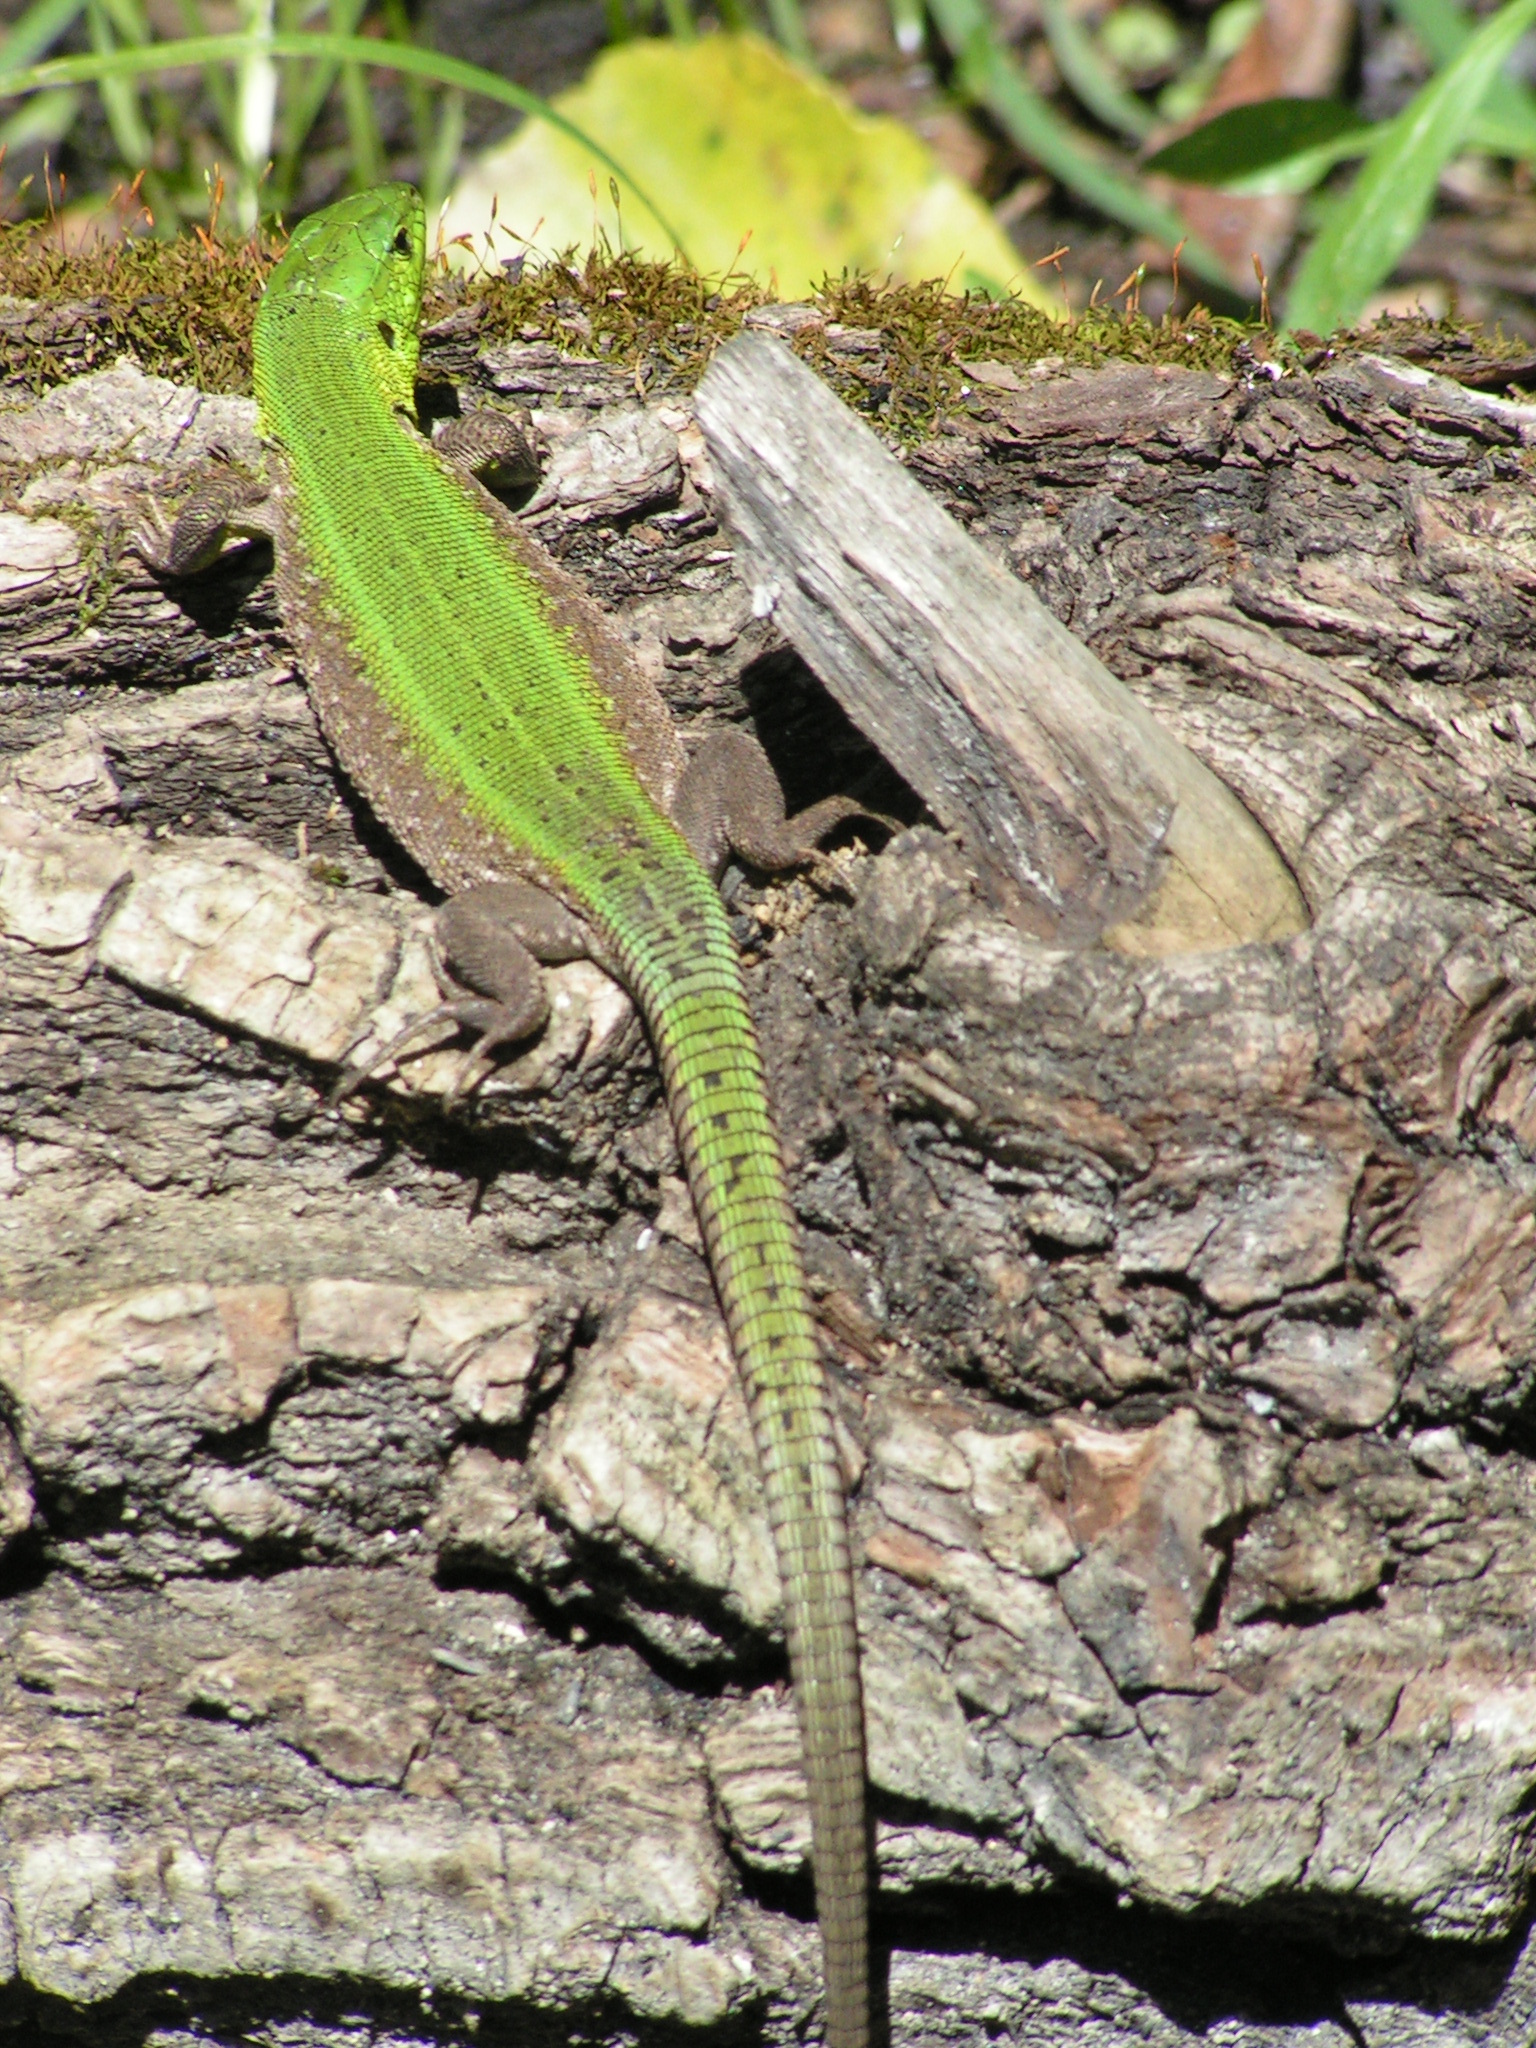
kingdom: Animalia
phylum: Chordata
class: Squamata
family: Lacertidae
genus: Lacerta
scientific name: Lacerta agilis
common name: Sand lizard
